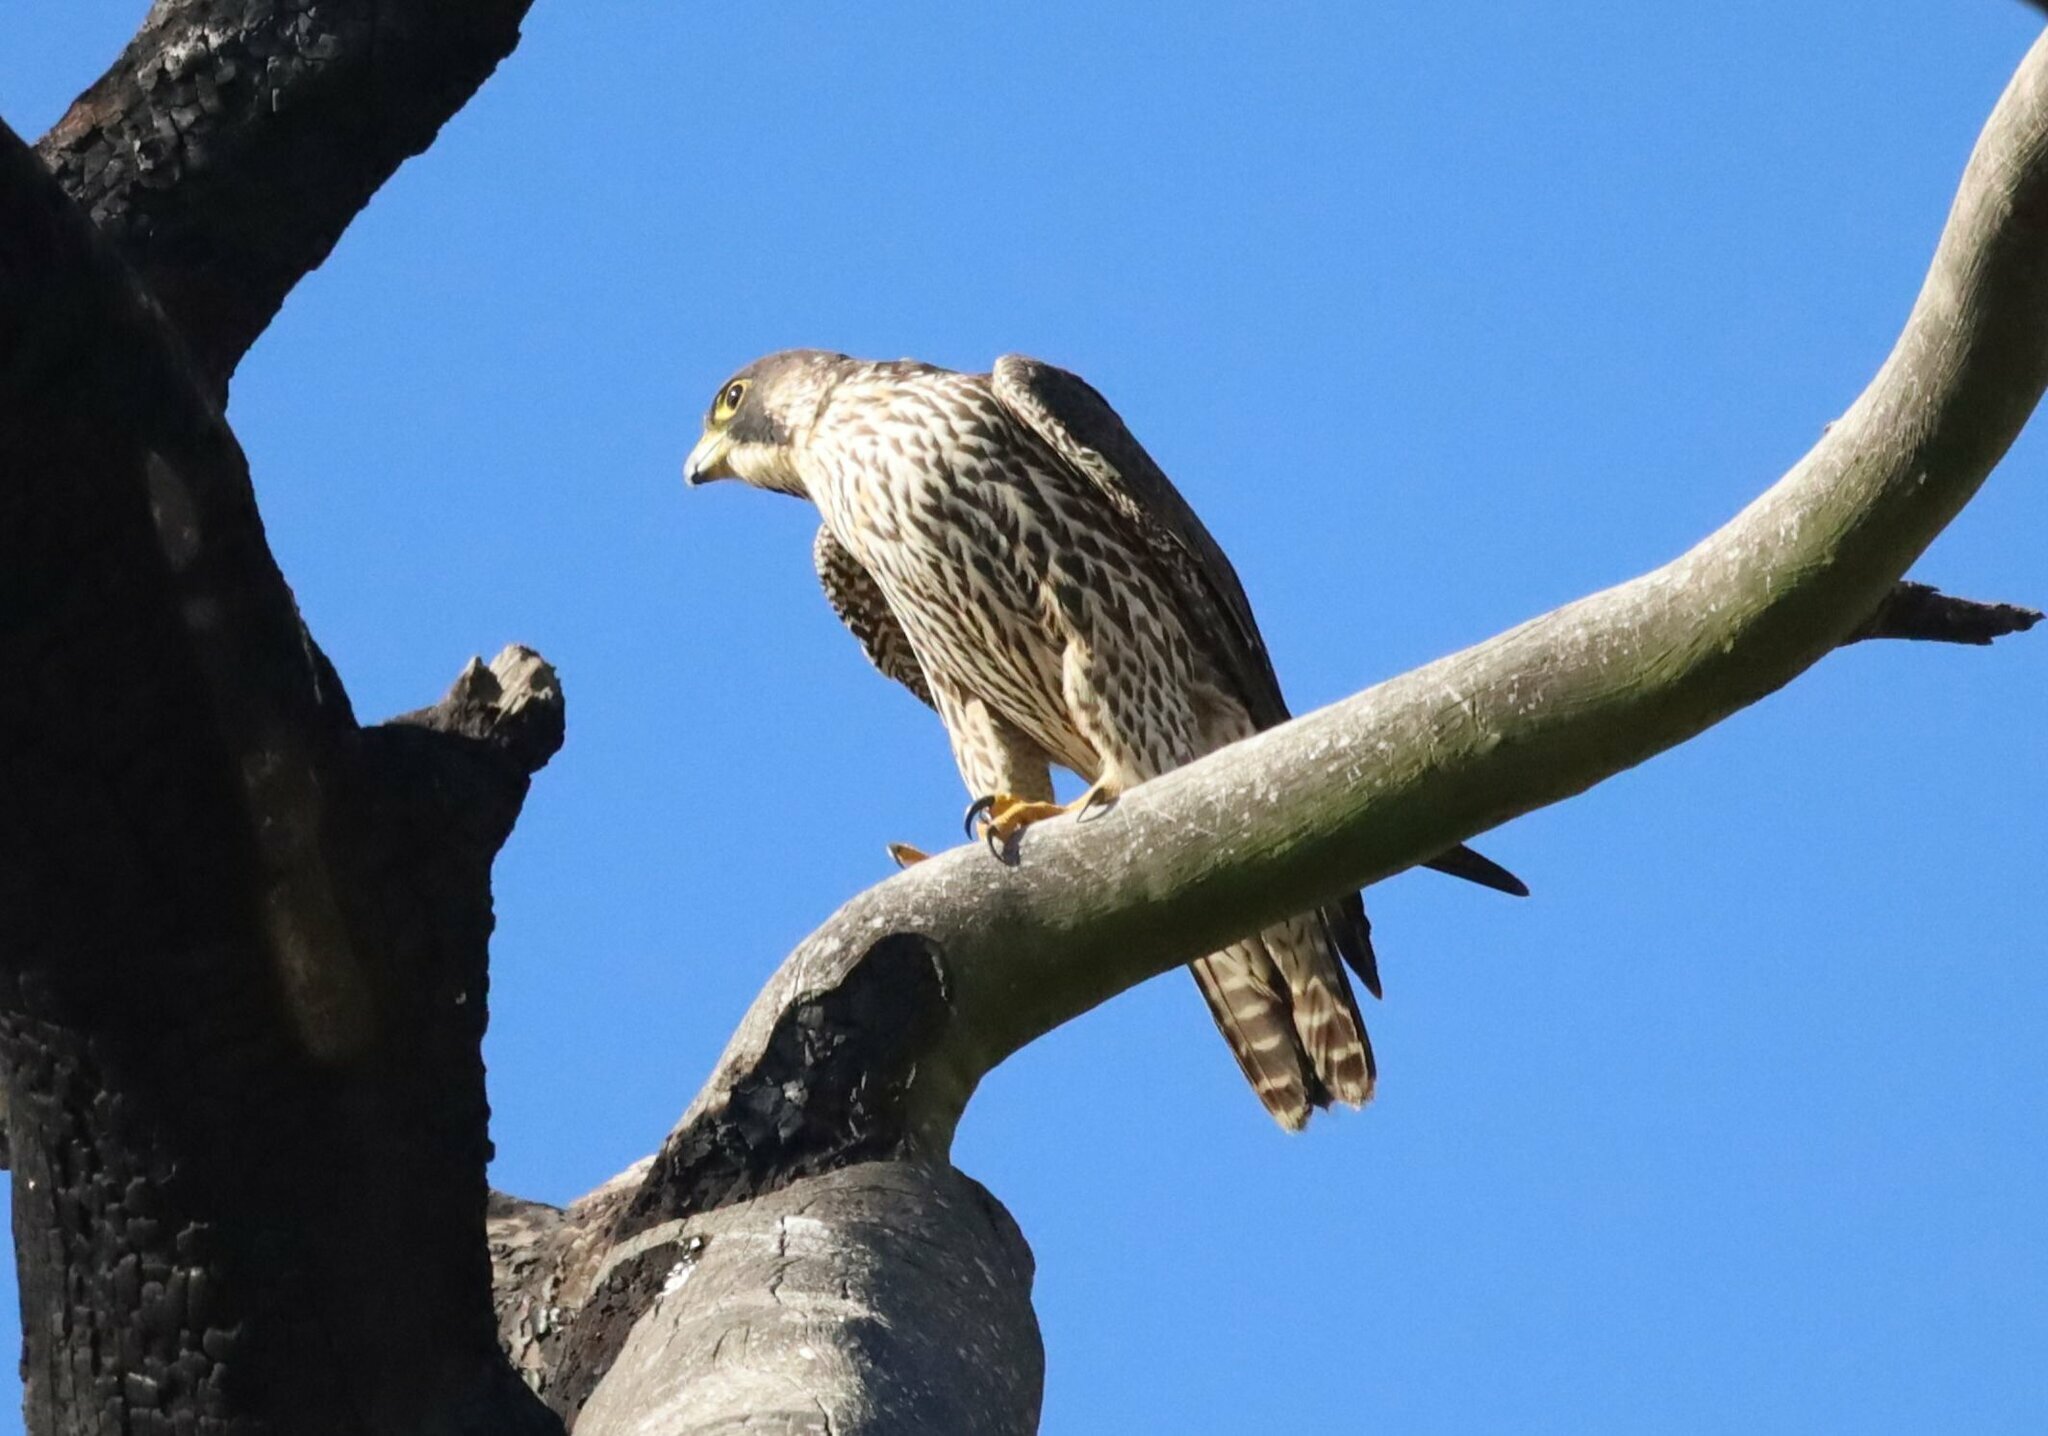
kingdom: Animalia
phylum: Chordata
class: Aves
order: Falconiformes
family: Falconidae
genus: Falco
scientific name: Falco peregrinus
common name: Peregrine falcon
